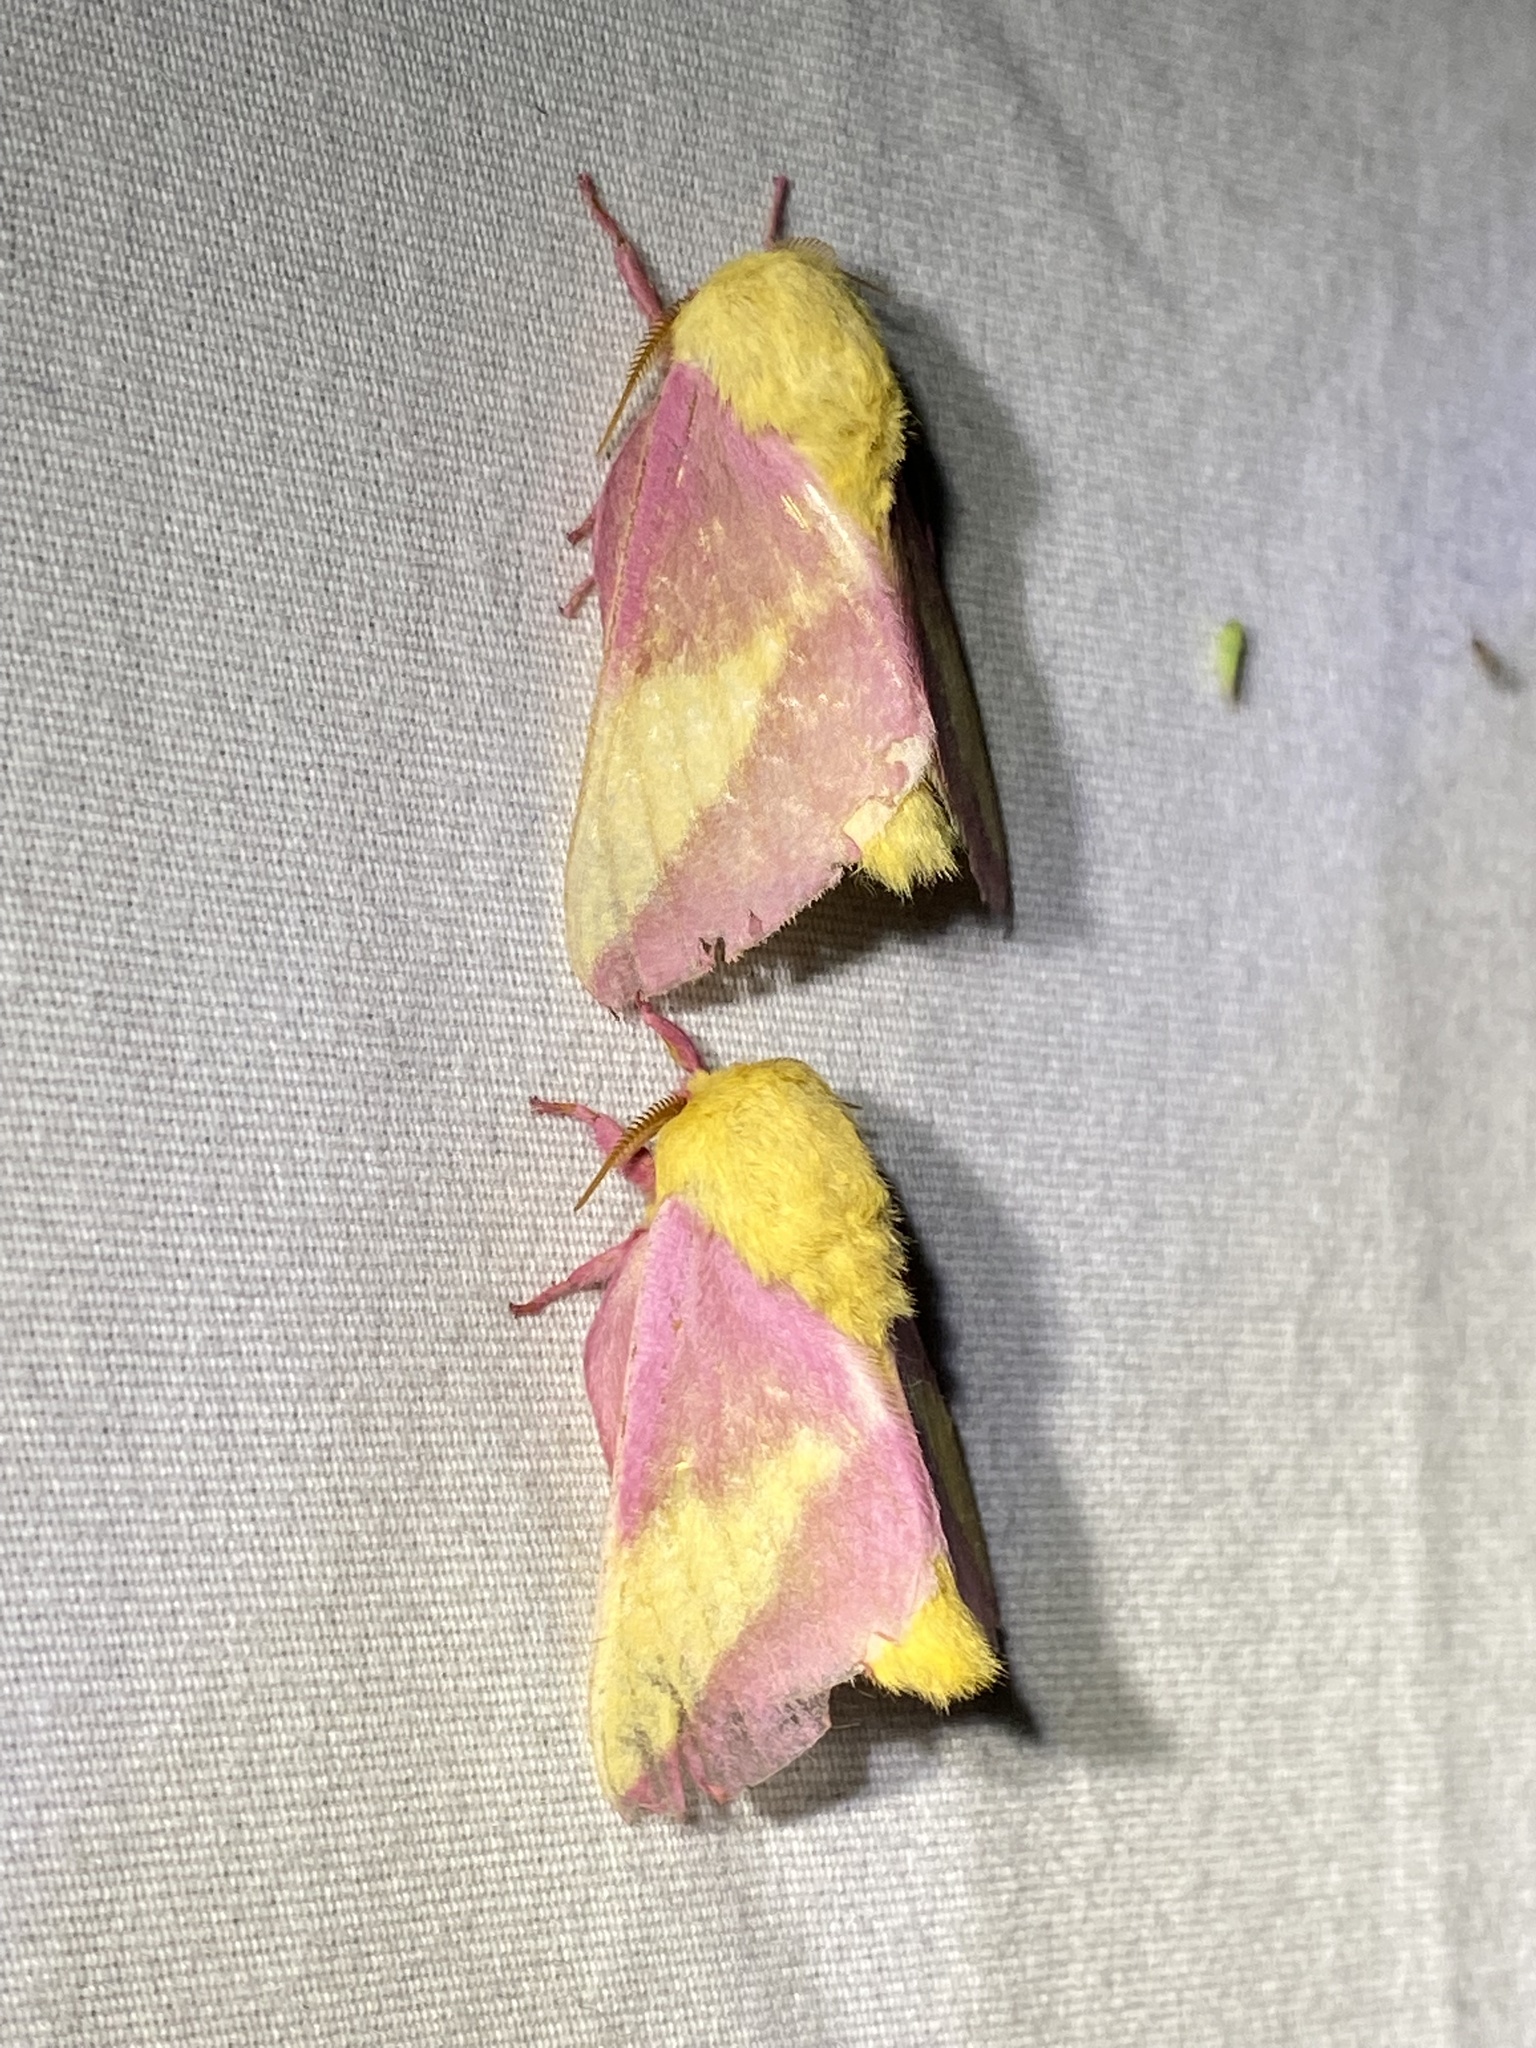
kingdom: Animalia
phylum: Arthropoda
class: Insecta
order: Lepidoptera
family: Saturniidae
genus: Dryocampa
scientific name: Dryocampa rubicunda
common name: Rosy maple moth
